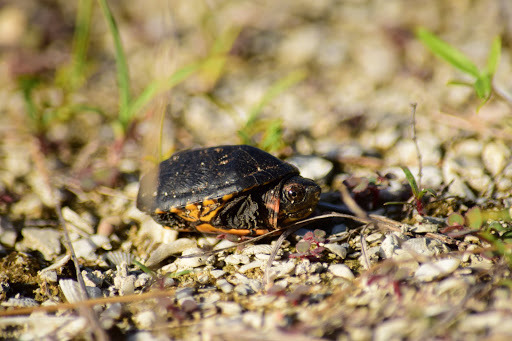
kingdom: Animalia
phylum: Chordata
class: Testudines
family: Kinosternidae
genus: Kinosternon
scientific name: Kinosternon scorpioides
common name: Scorpion mud turtle
